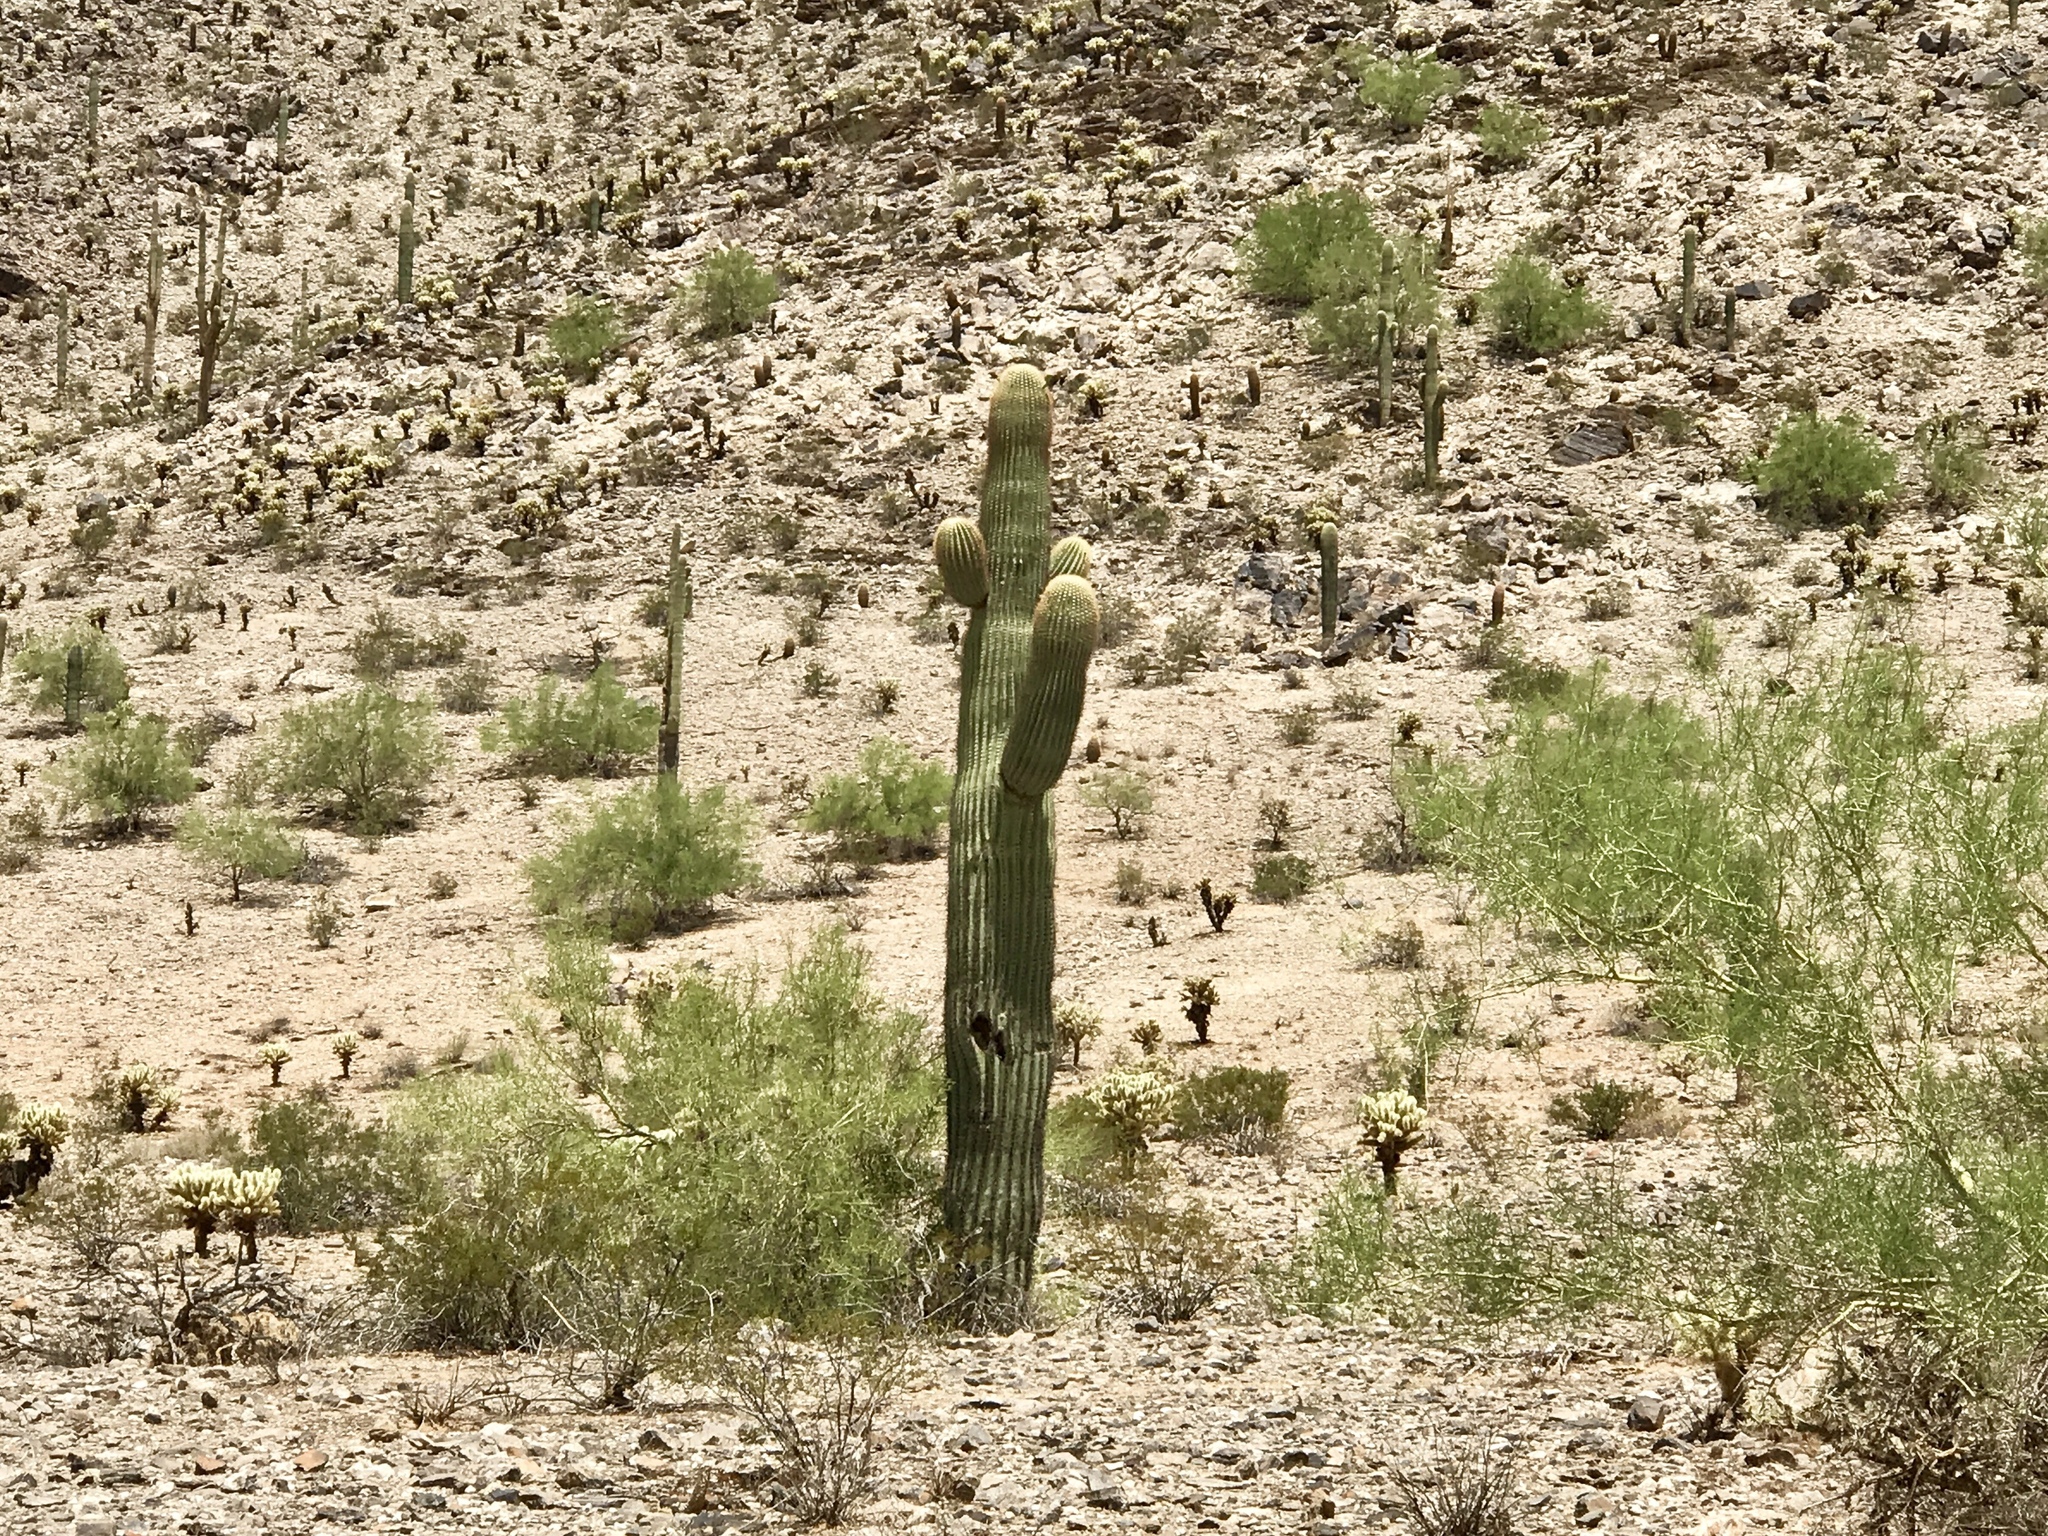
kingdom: Plantae
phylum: Tracheophyta
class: Magnoliopsida
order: Caryophyllales
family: Cactaceae
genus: Carnegiea
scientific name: Carnegiea gigantea
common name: Saguaro
